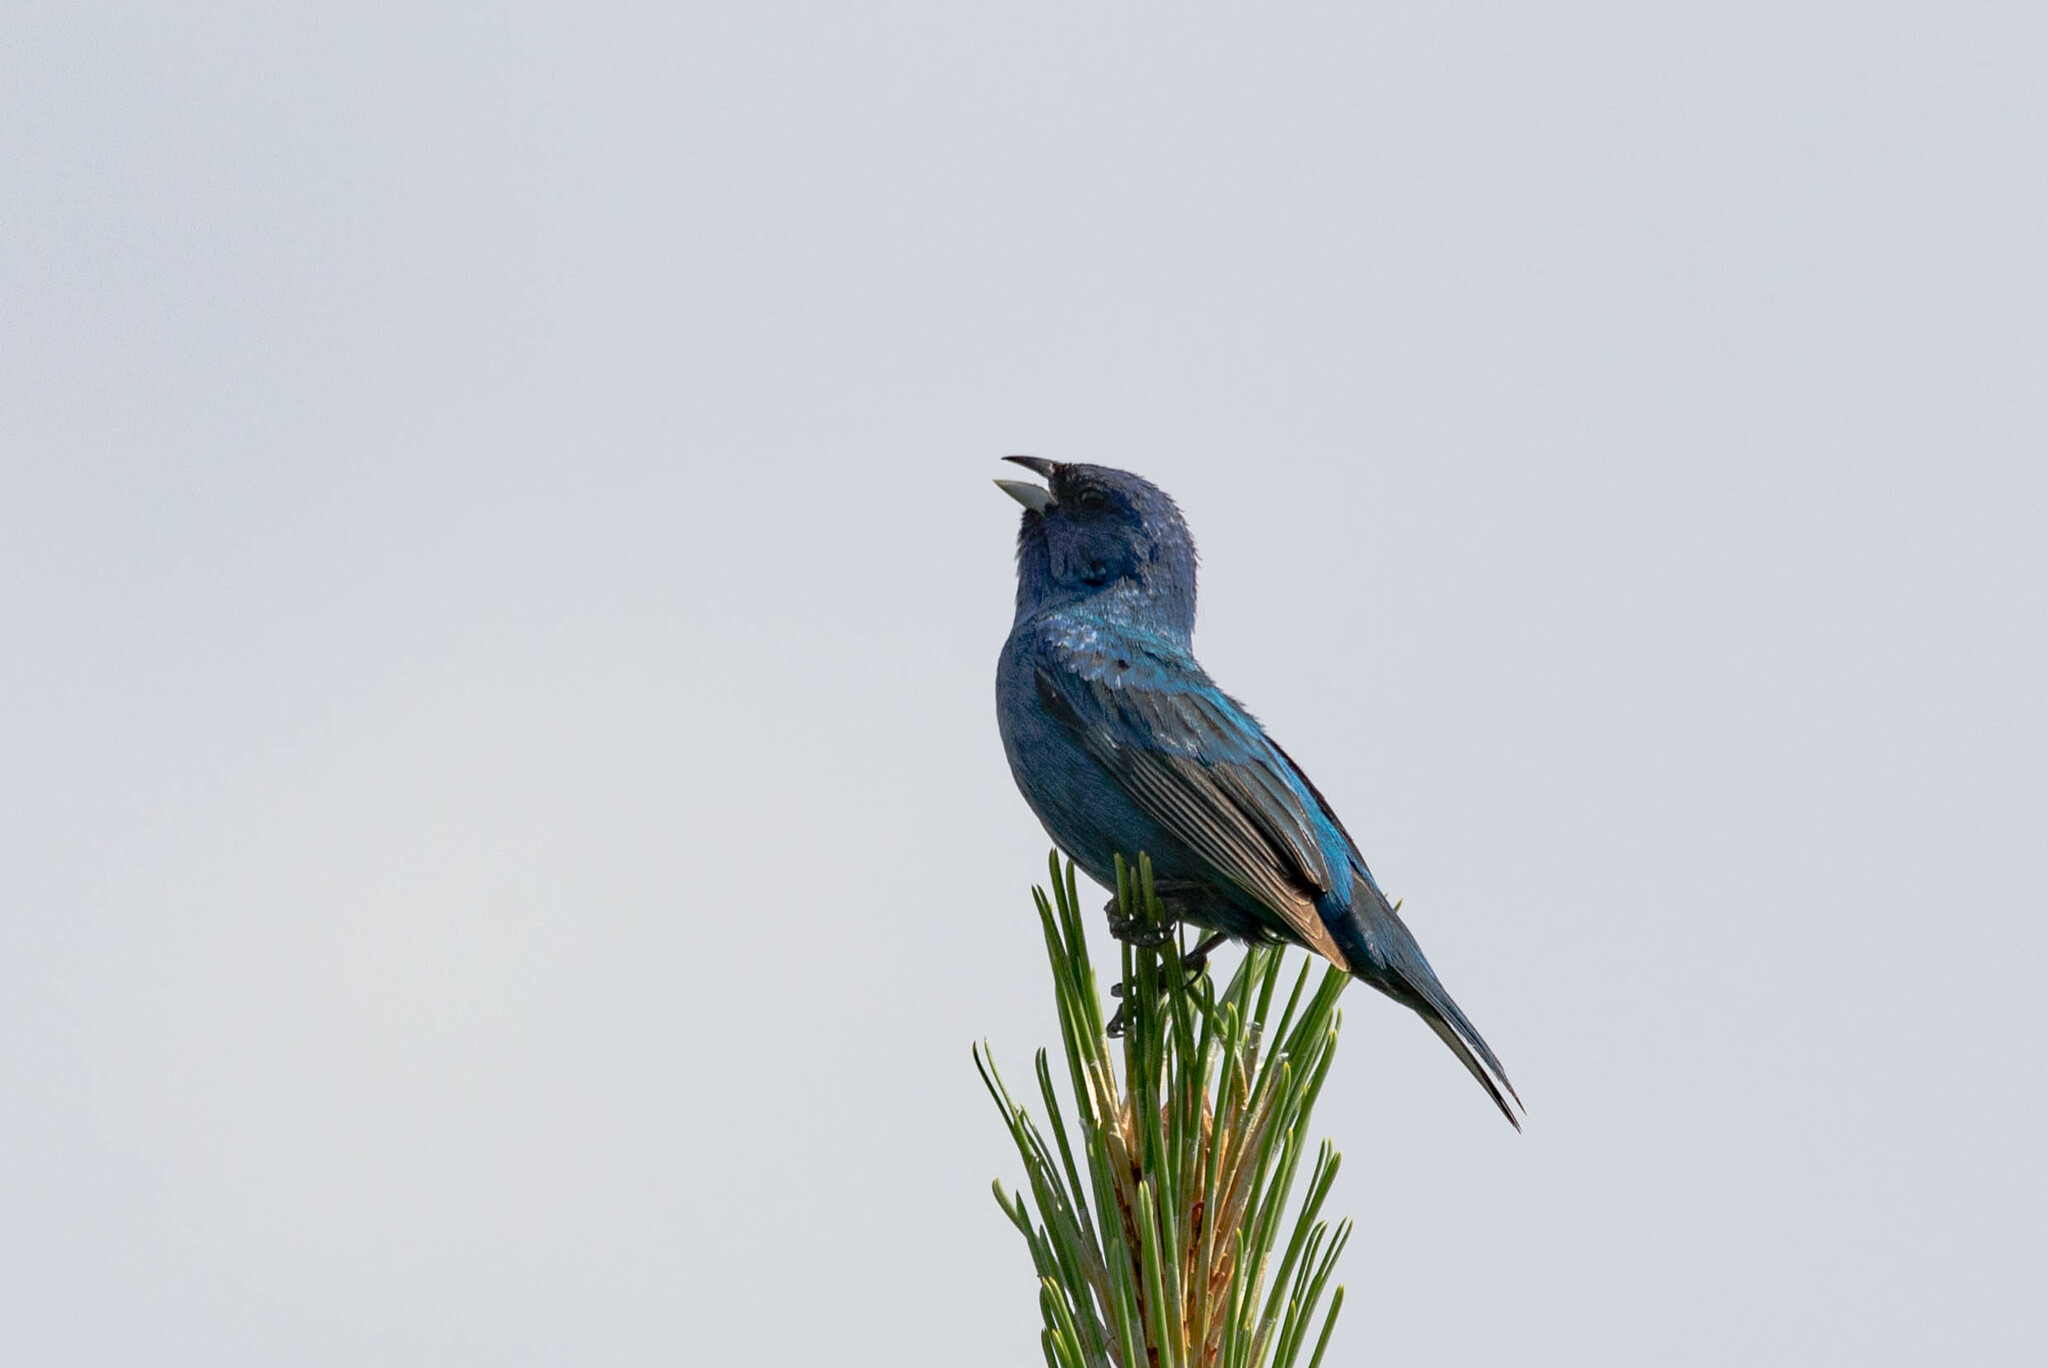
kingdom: Animalia
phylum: Chordata
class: Aves
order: Passeriformes
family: Cardinalidae
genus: Passerina
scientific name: Passerina cyanea
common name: Indigo bunting
